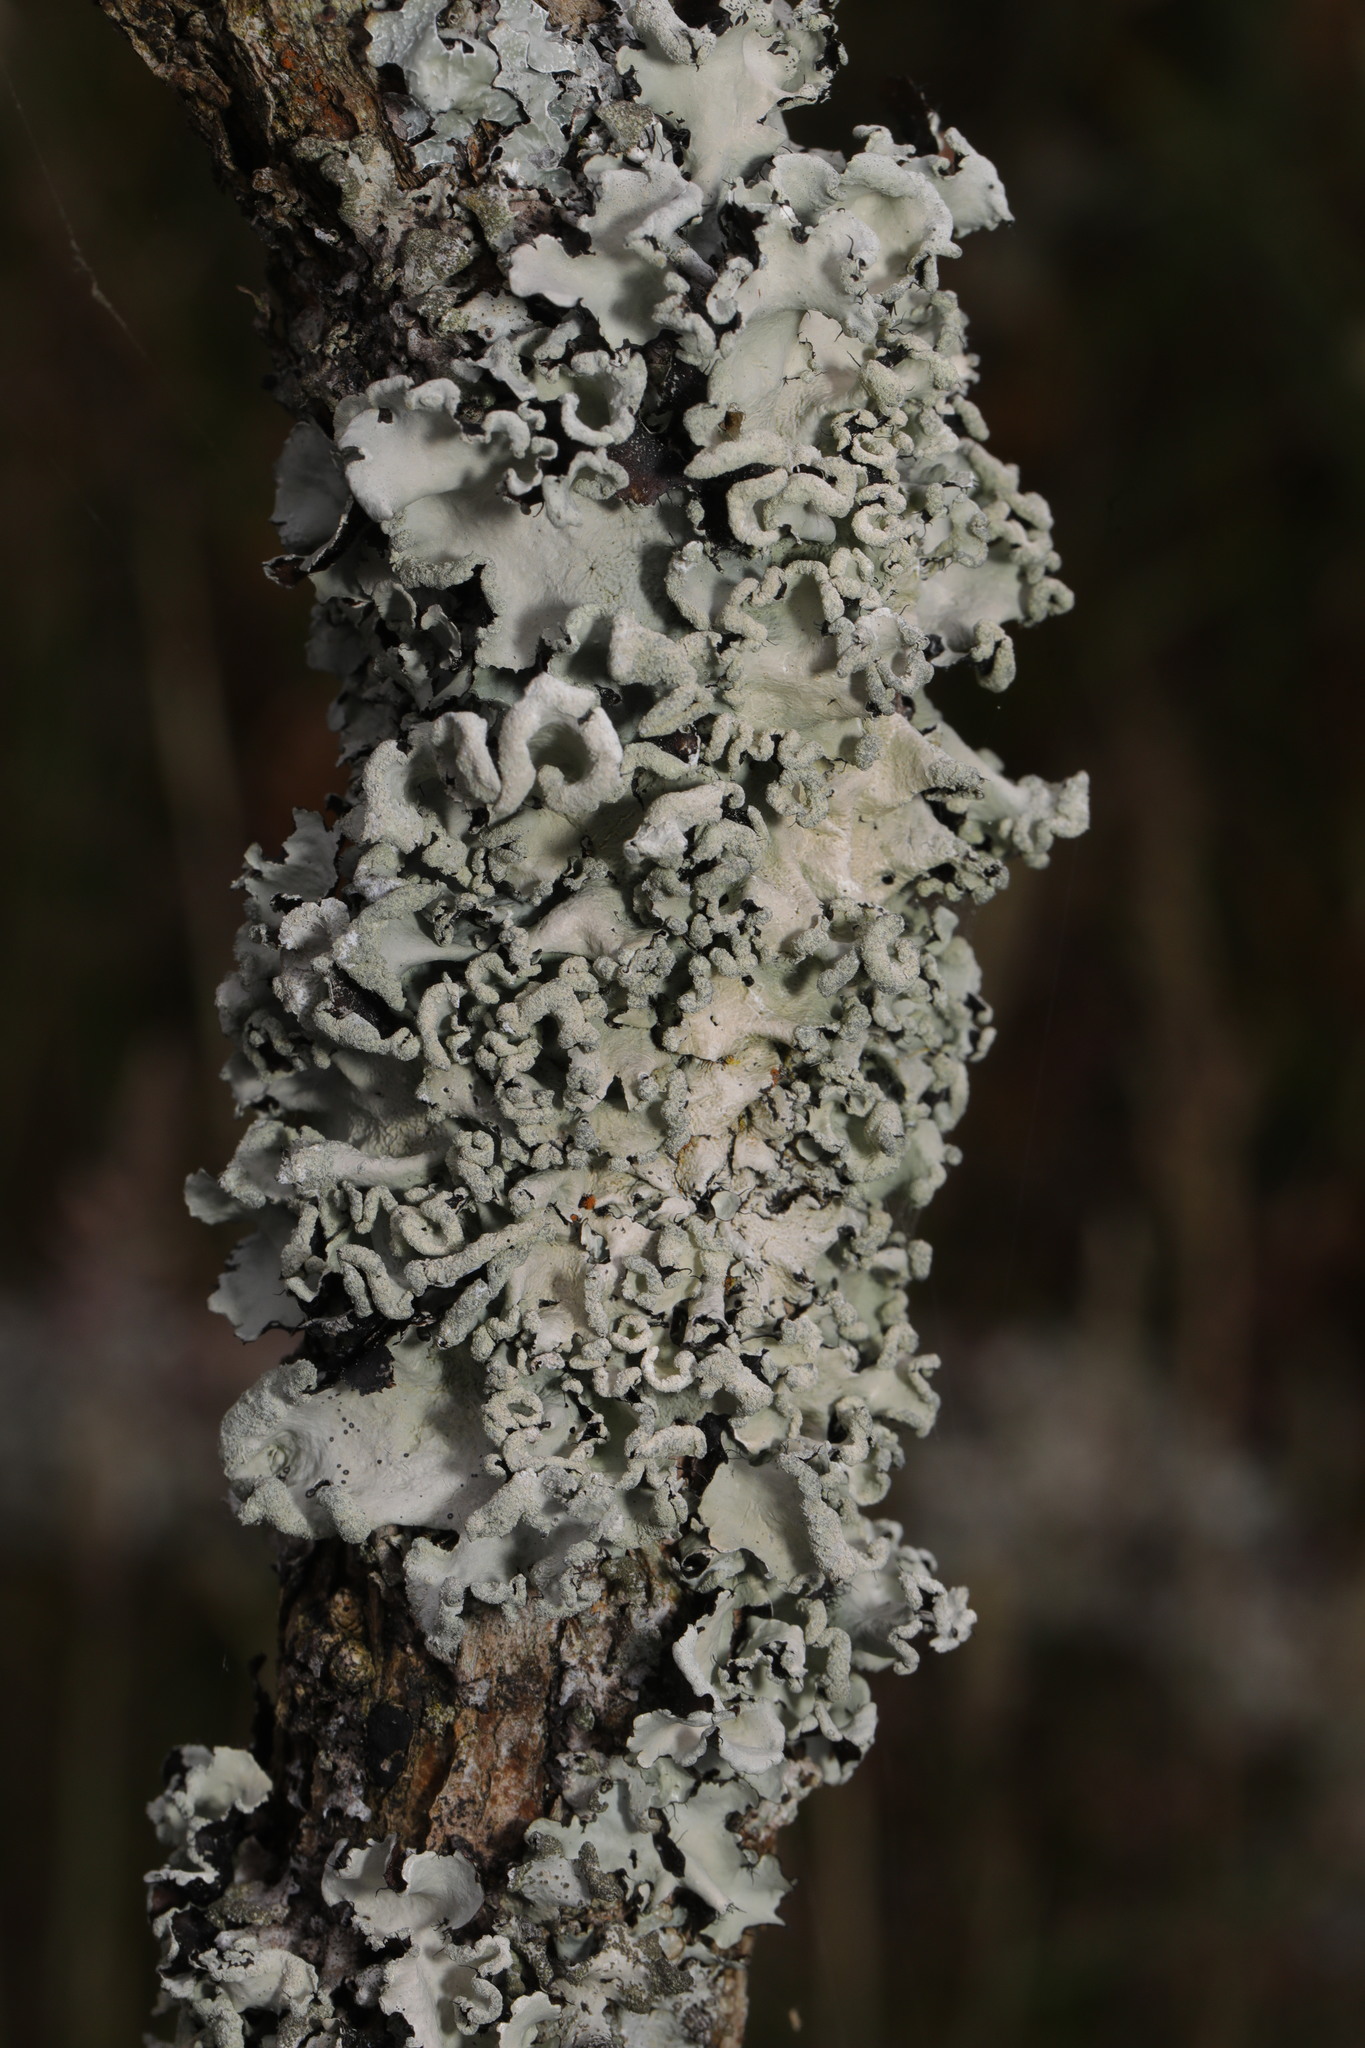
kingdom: Fungi
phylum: Ascomycota
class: Lecanoromycetes
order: Lecanorales
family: Parmeliaceae
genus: Parmotrema
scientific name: Parmotrema perlatum
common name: Black stone flower
